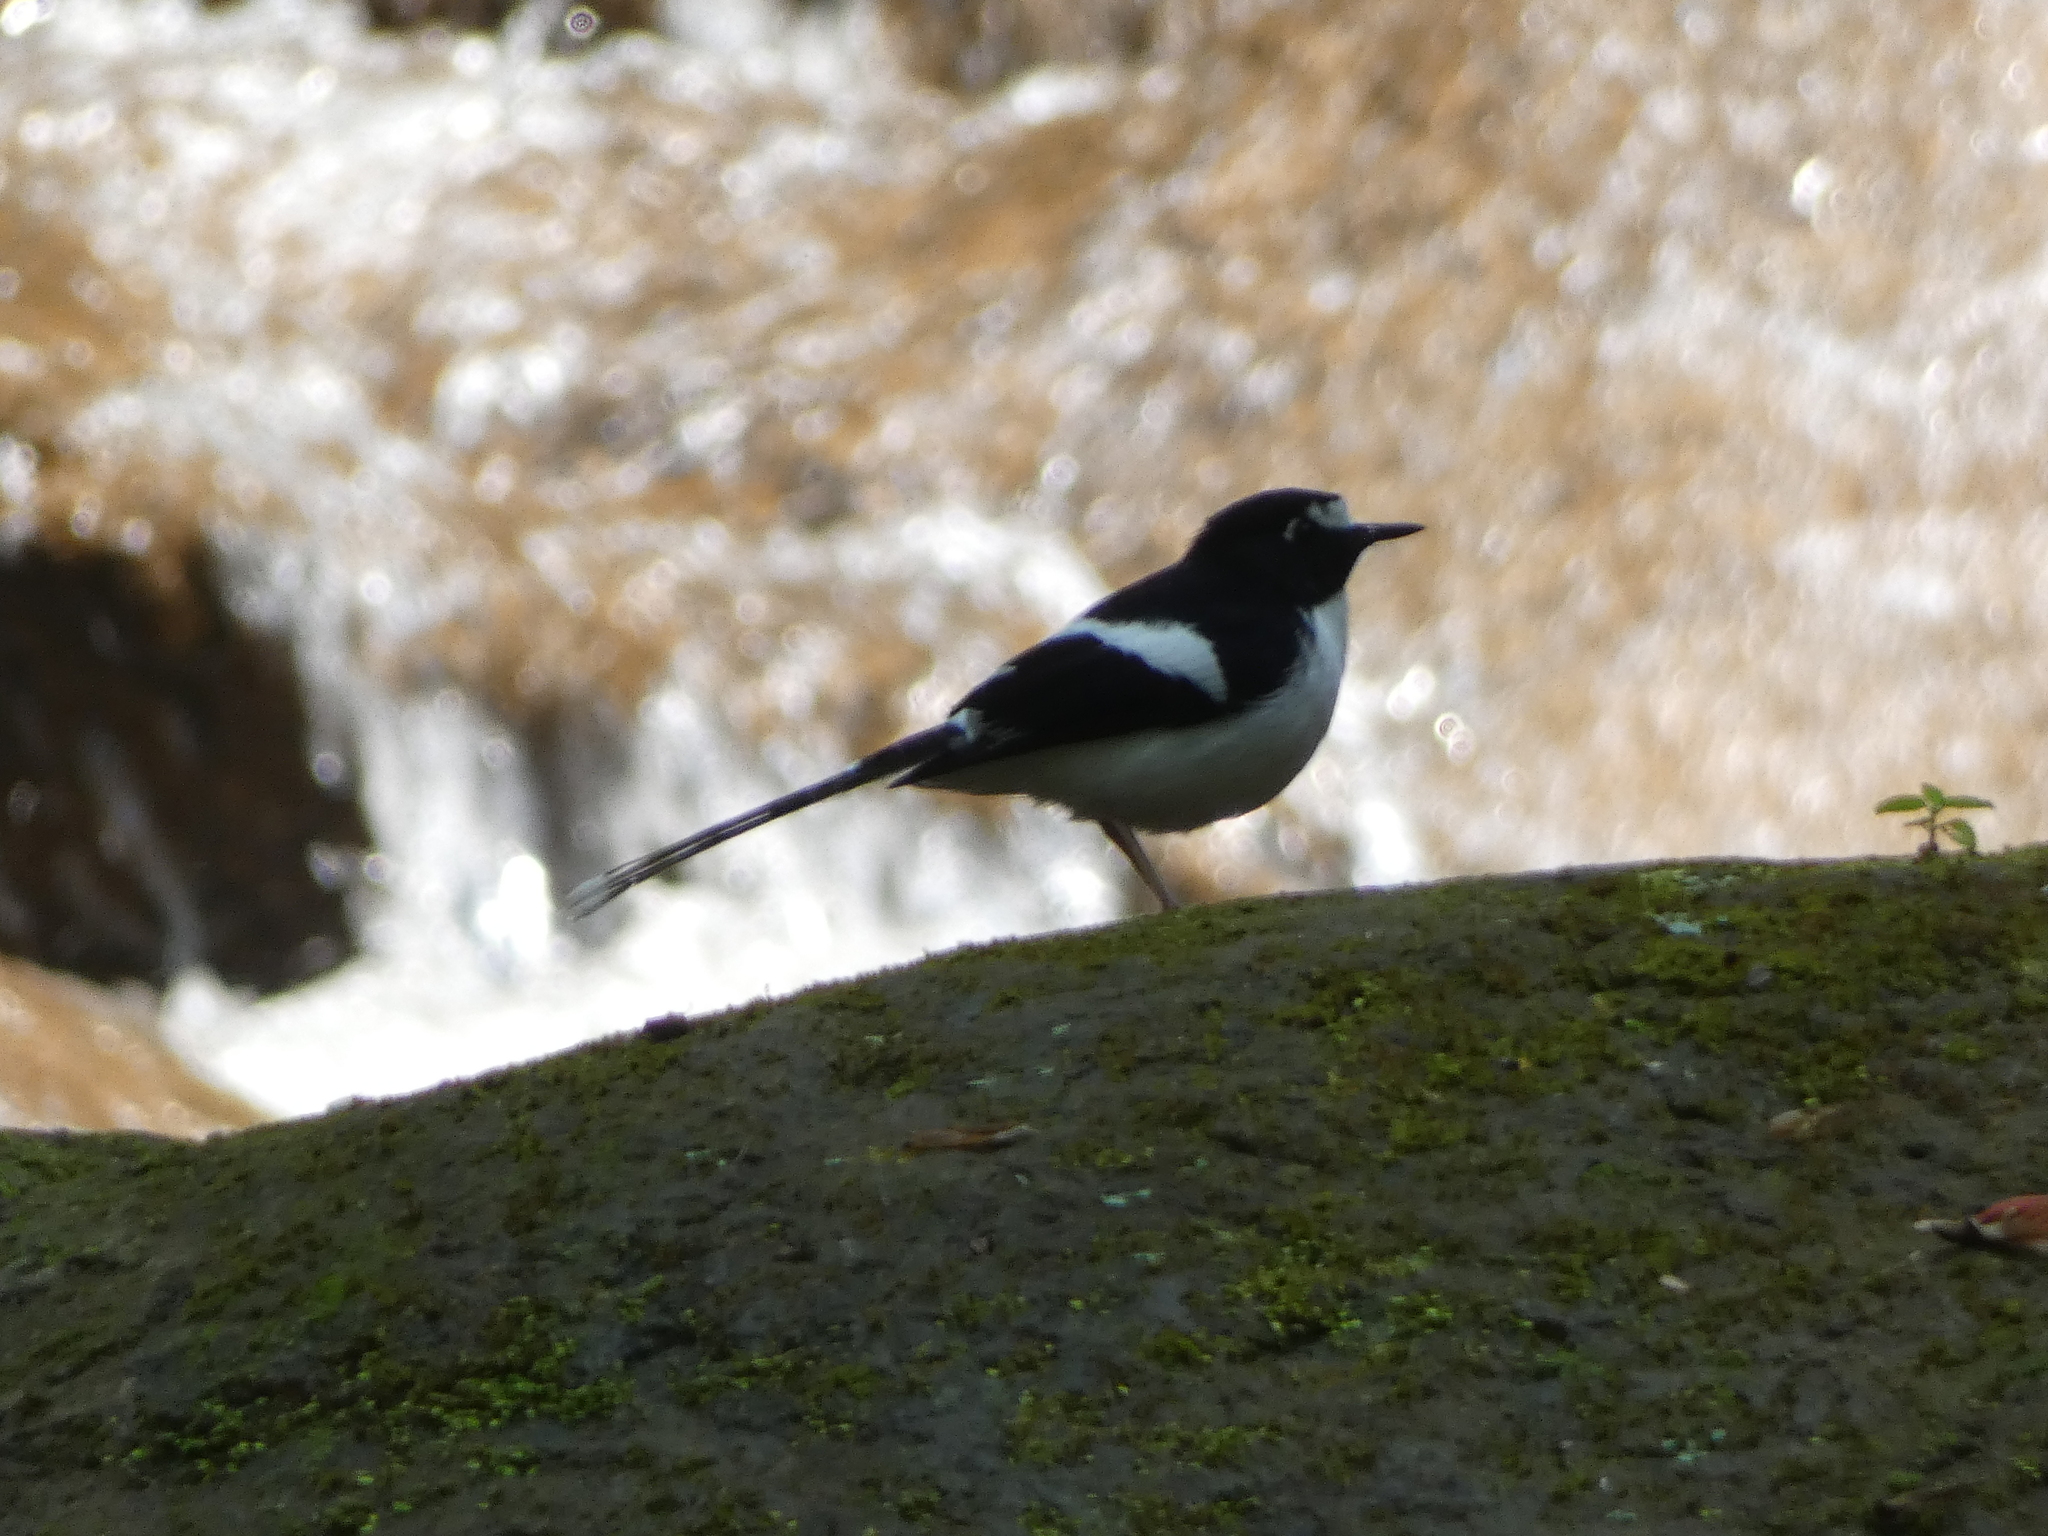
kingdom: Animalia
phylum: Chordata
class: Aves
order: Passeriformes
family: Muscicapidae
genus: Enicurus
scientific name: Enicurus immaculatus
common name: Black-backed forktail
